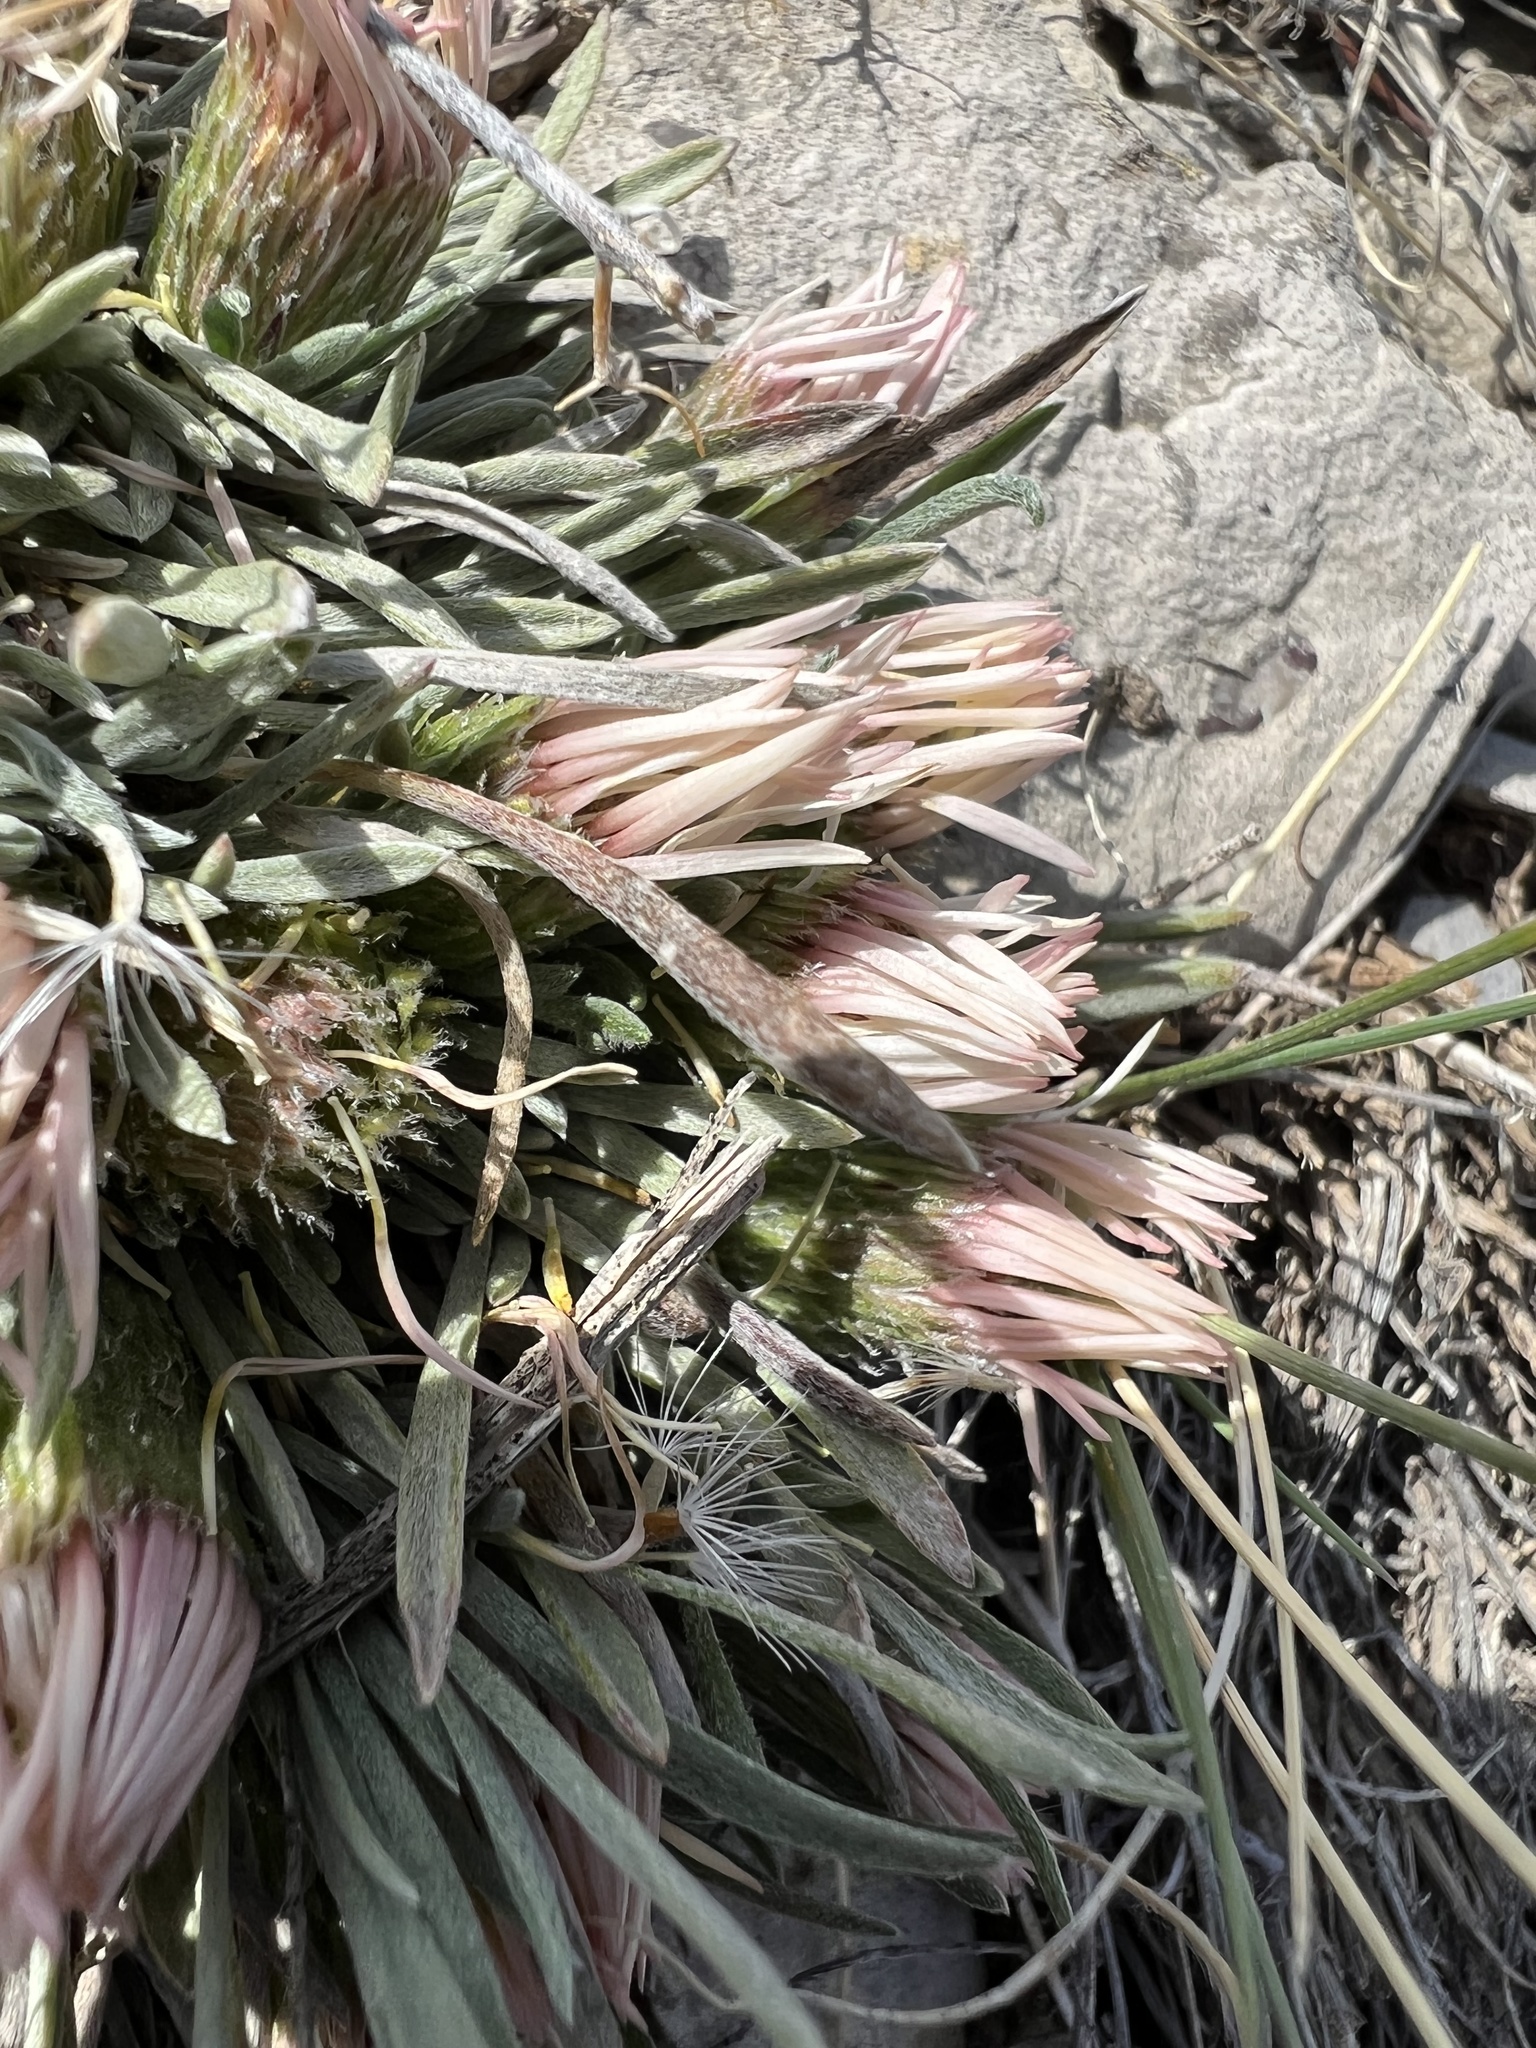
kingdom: Plantae
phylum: Tracheophyta
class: Magnoliopsida
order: Asterales
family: Asteraceae
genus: Townsendia
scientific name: Townsendia hookeri
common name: Hooker's townsend daisy
